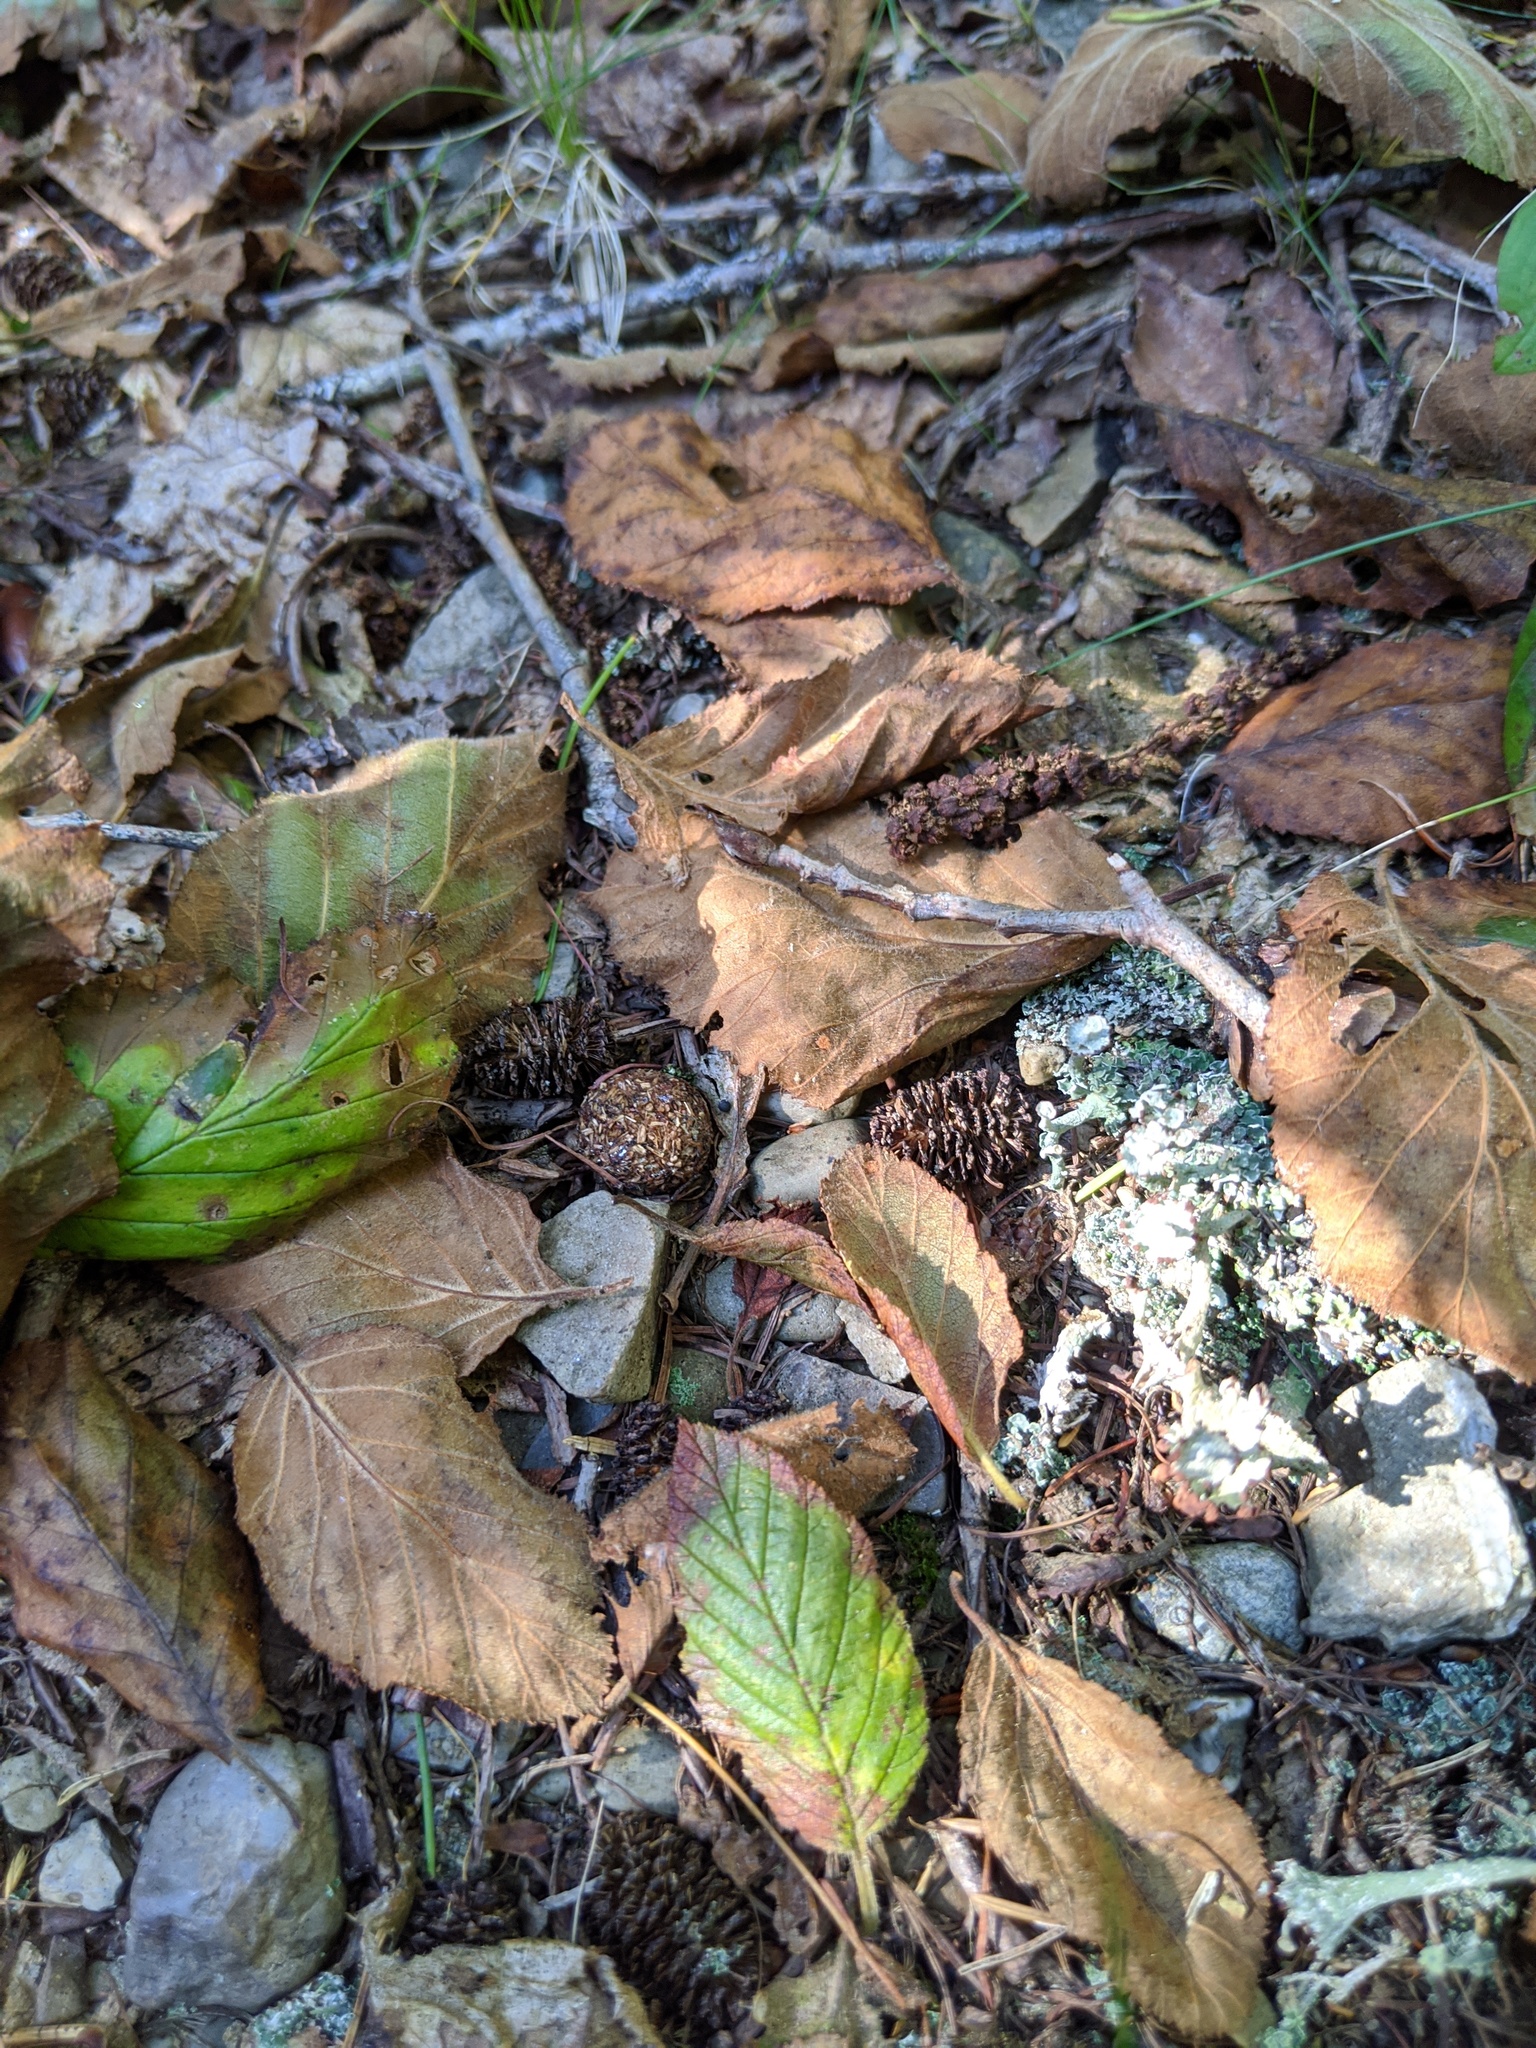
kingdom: Animalia
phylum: Chordata
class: Mammalia
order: Lagomorpha
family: Leporidae
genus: Lepus
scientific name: Lepus americanus
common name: Snowshoe hare
